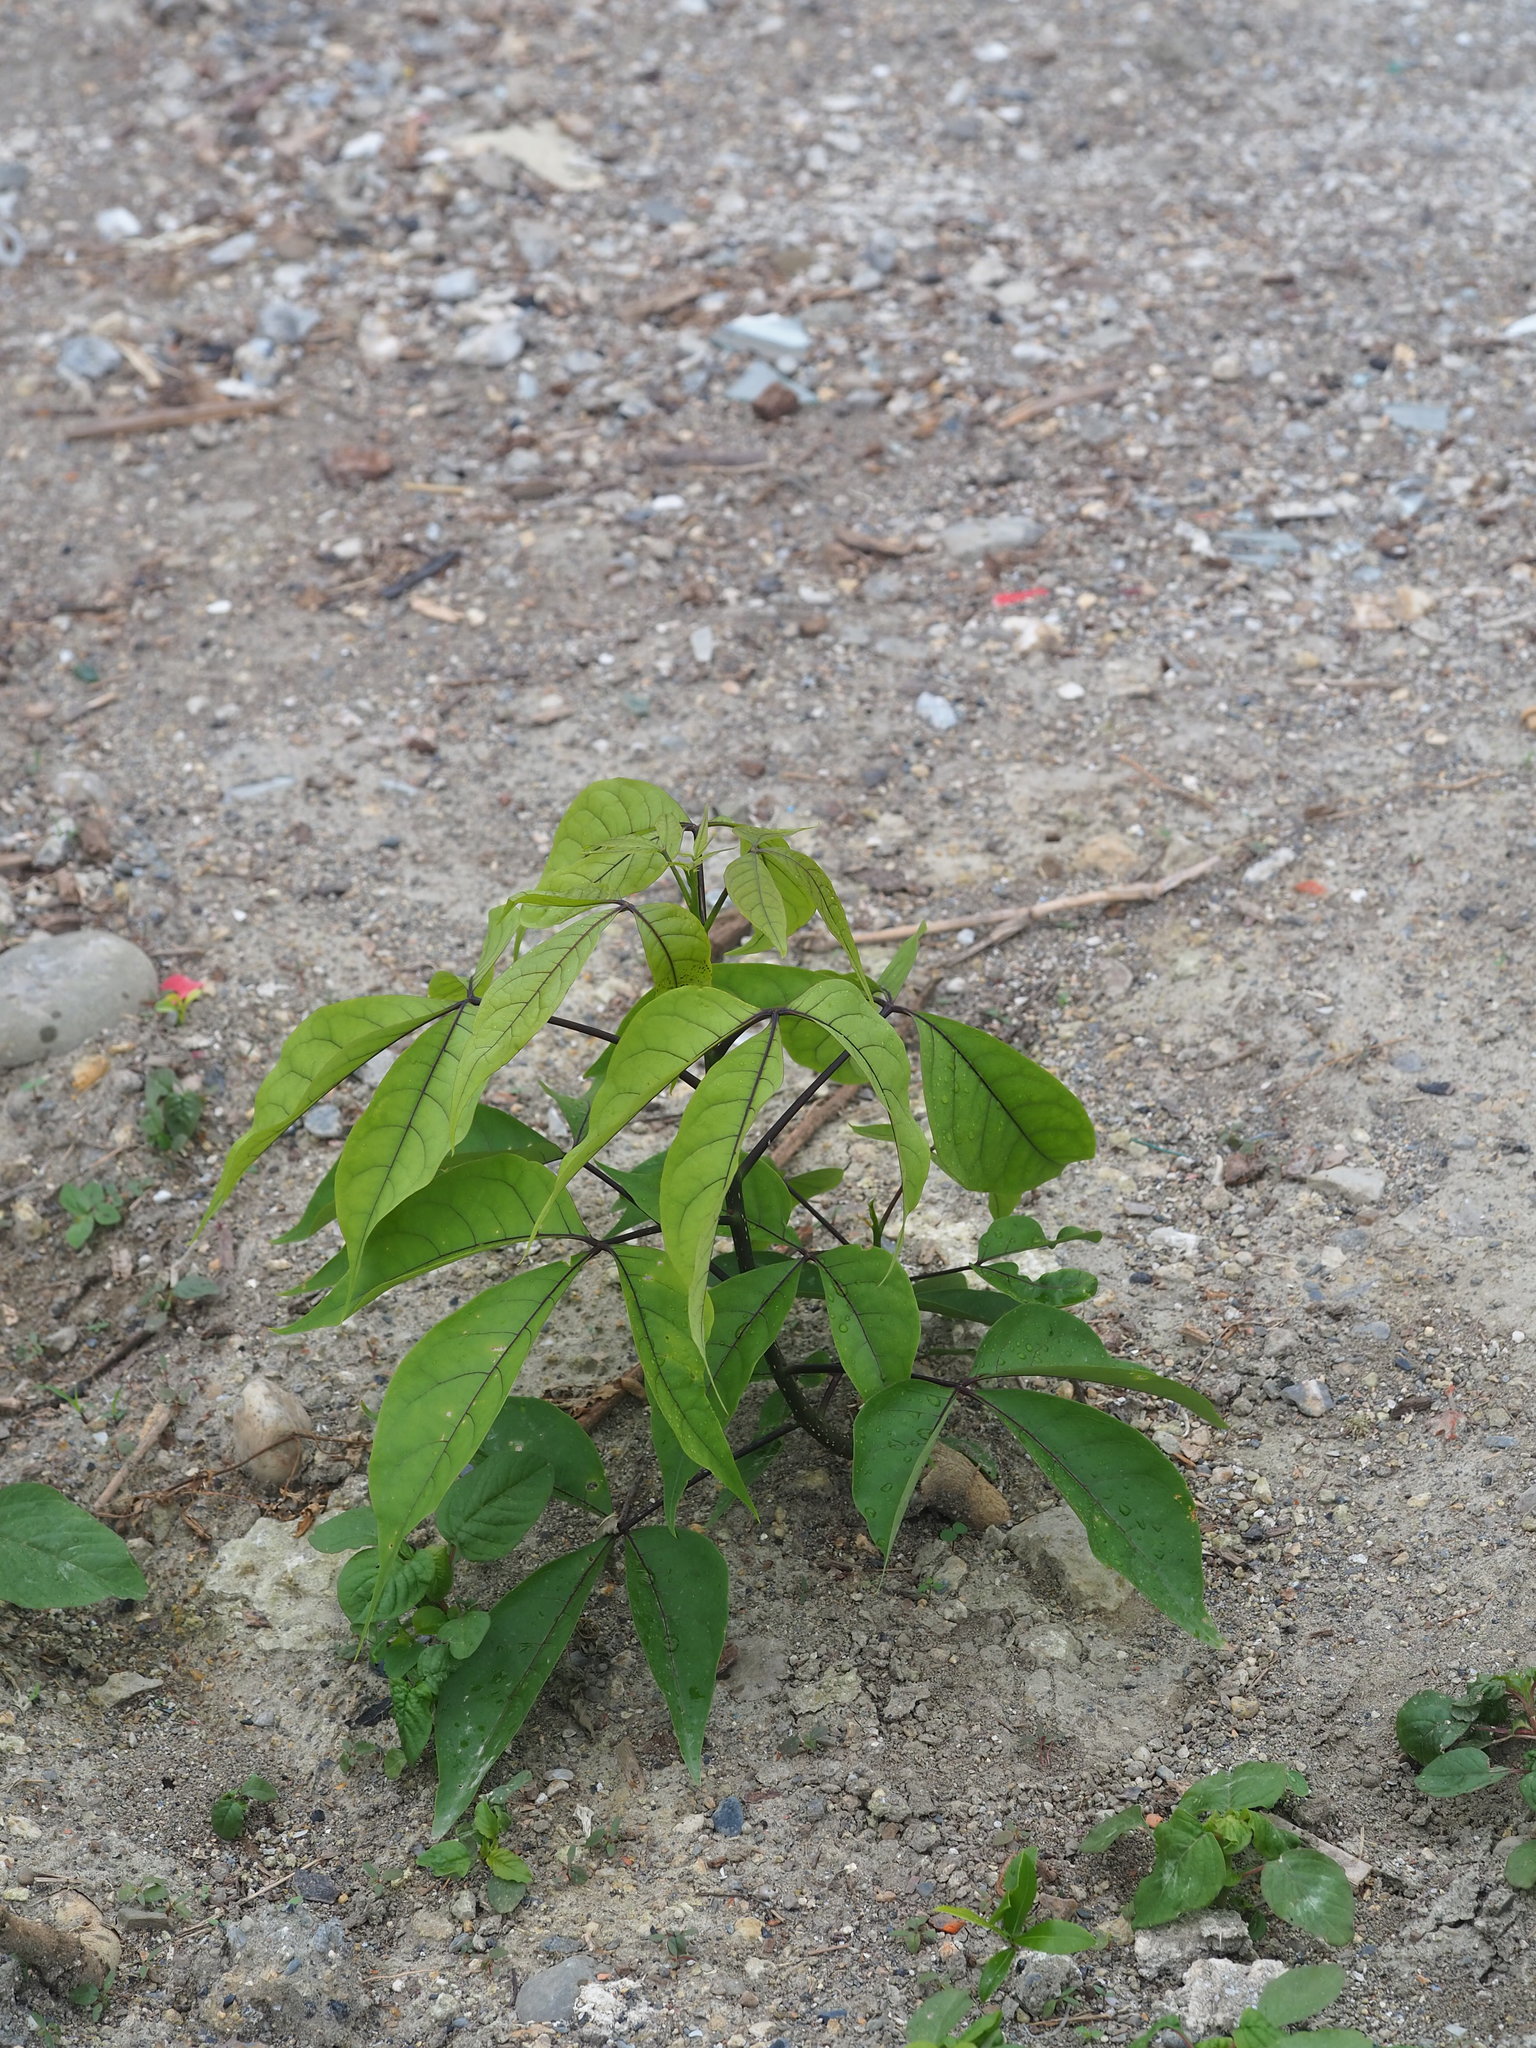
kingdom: Plantae
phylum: Tracheophyta
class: Magnoliopsida
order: Brassicales
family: Capparaceae
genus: Crateva
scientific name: Crateva formosensis
